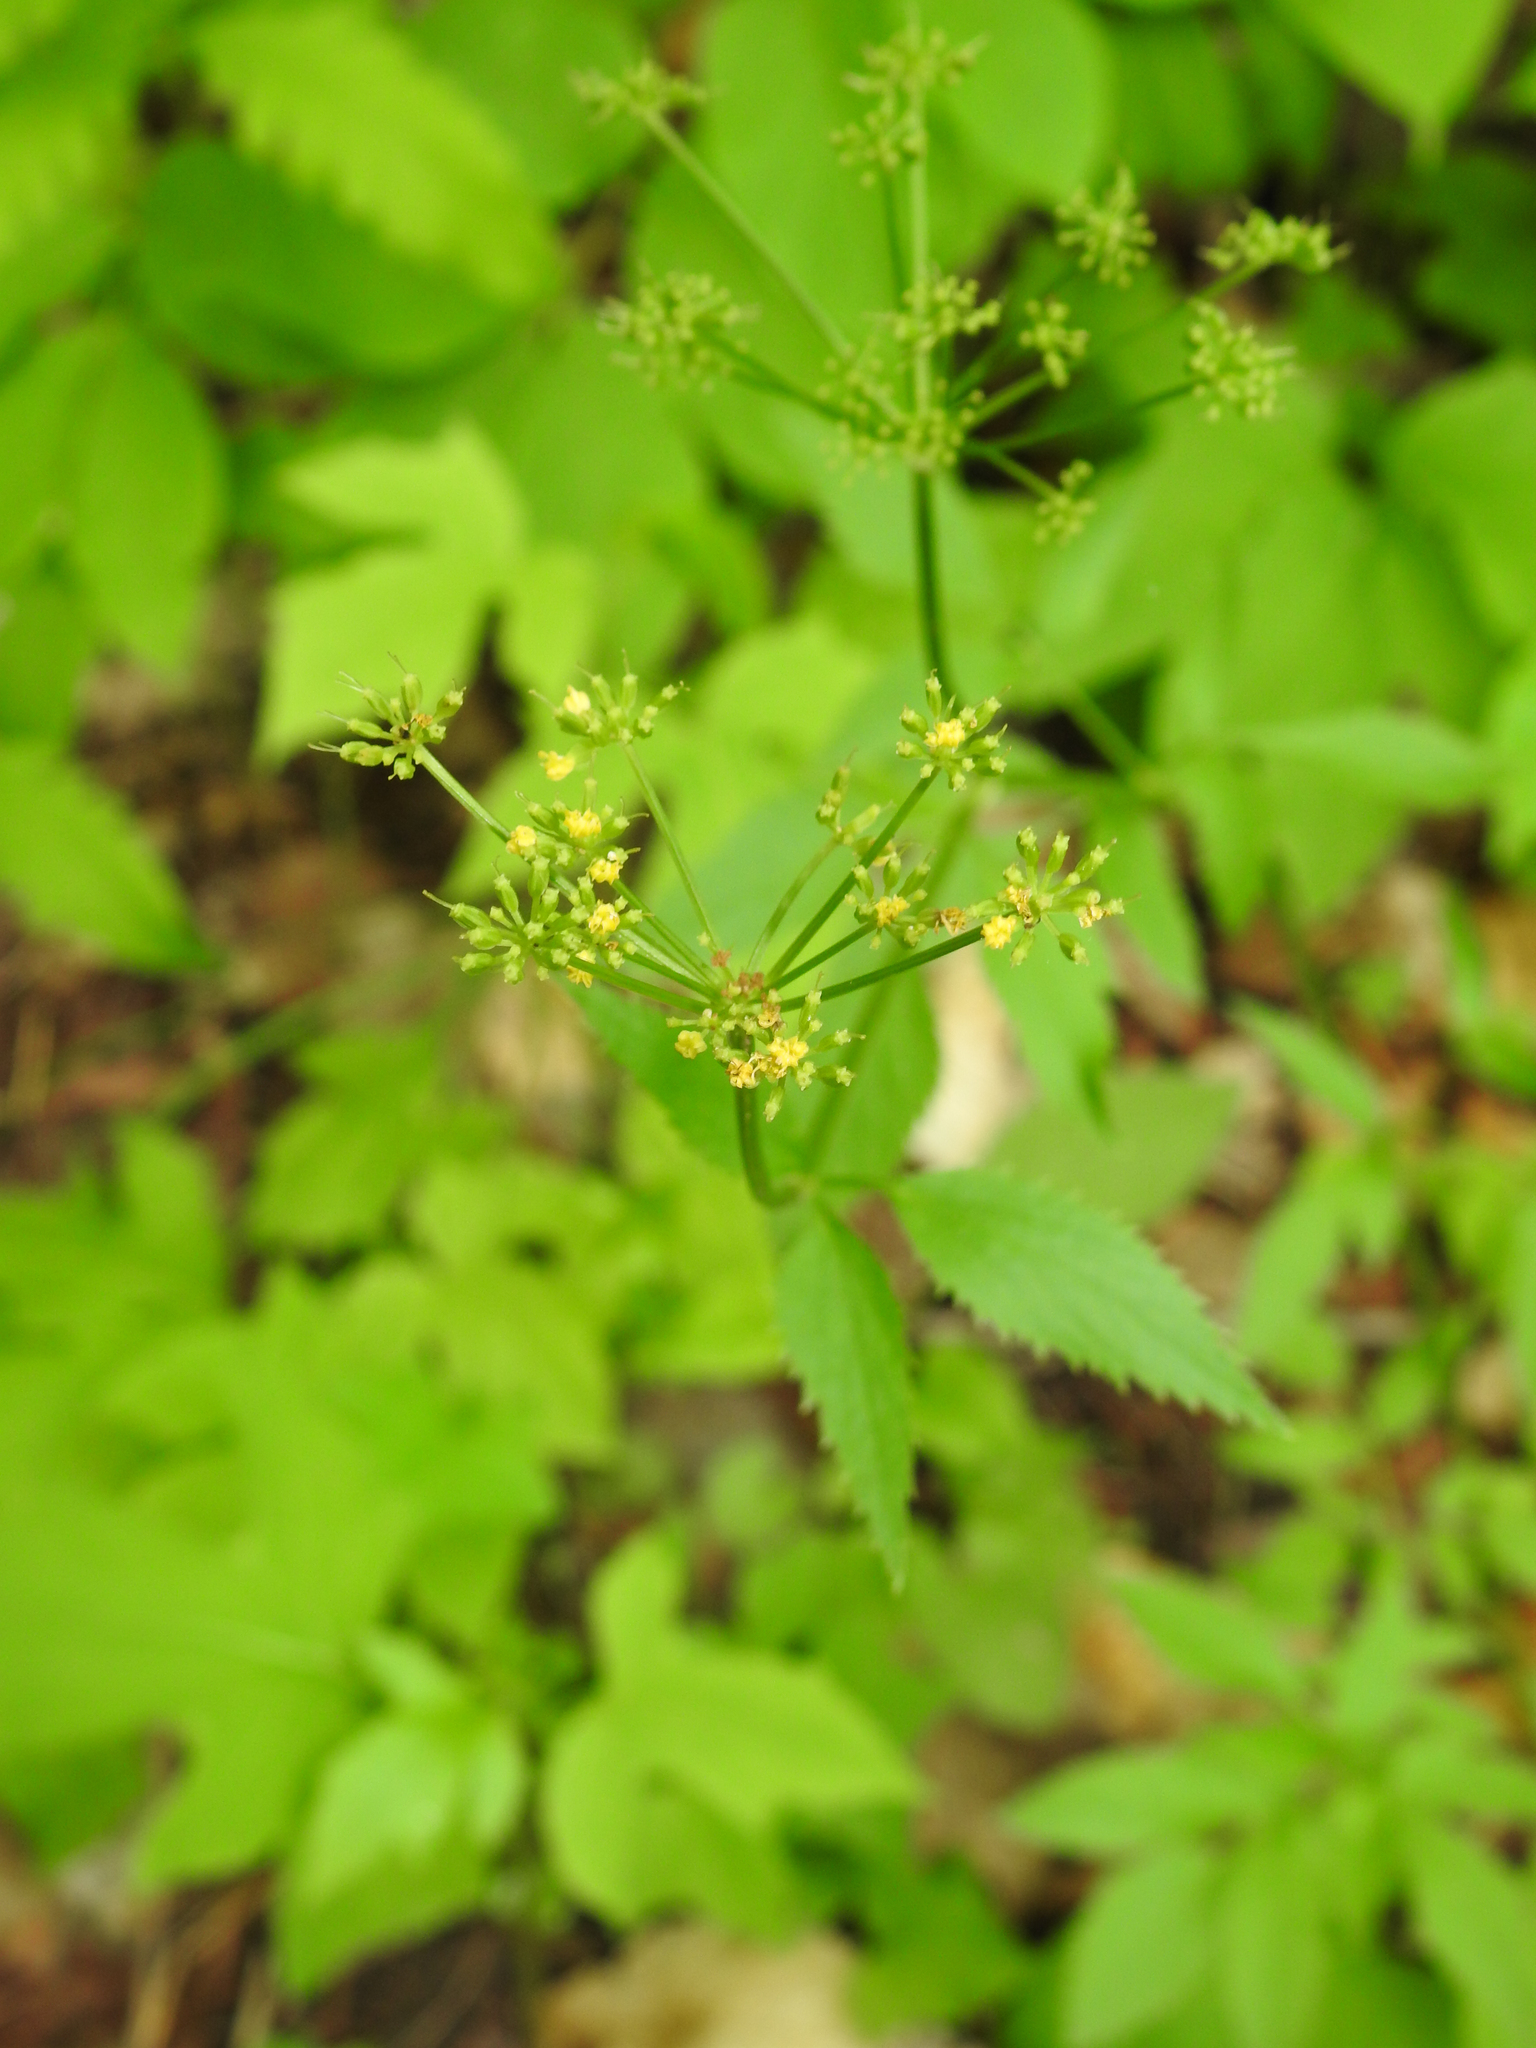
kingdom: Plantae
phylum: Tracheophyta
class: Magnoliopsida
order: Apiales
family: Apiaceae
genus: Zizia
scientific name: Zizia aurea
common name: Golden alexanders
